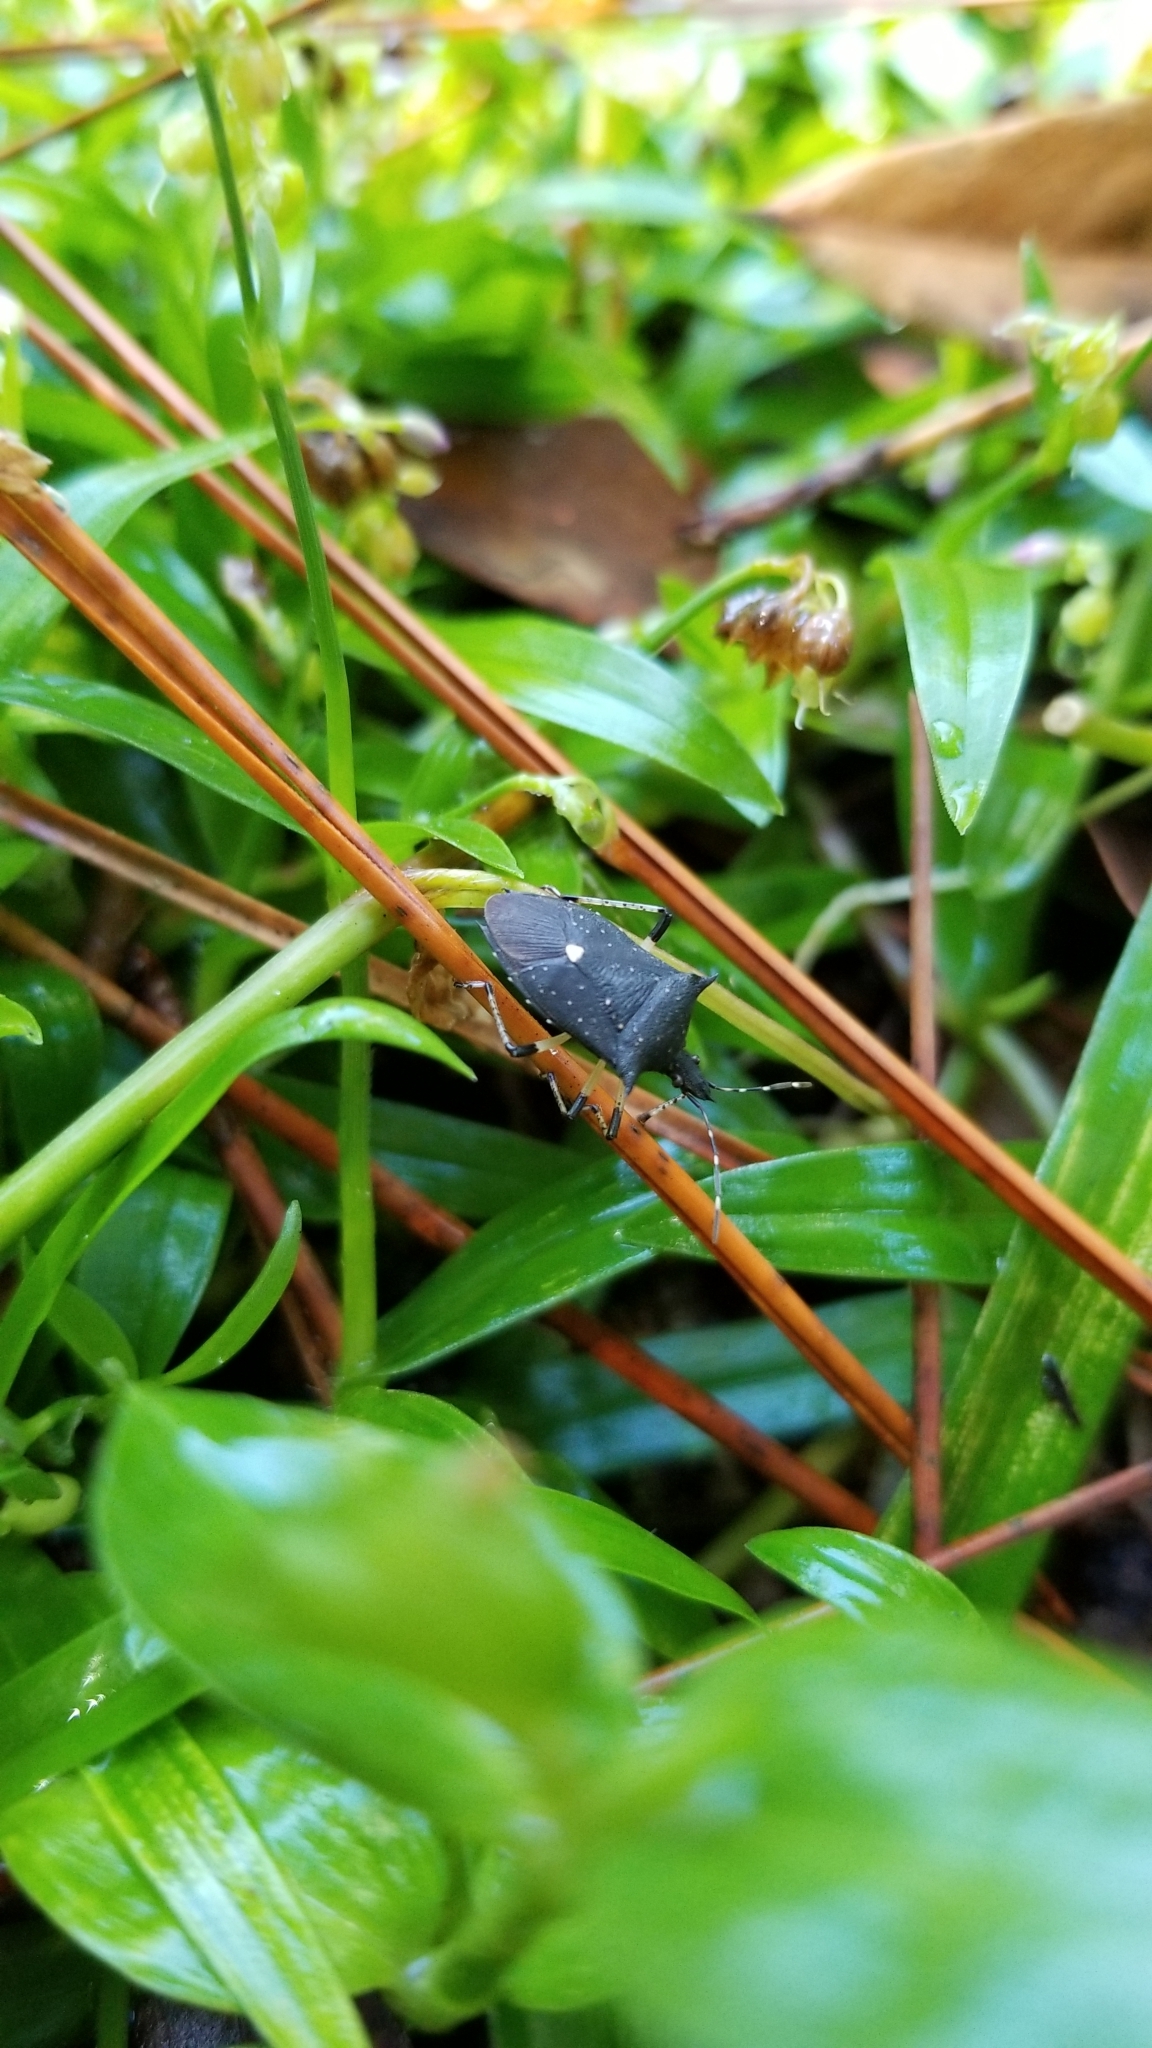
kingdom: Animalia
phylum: Arthropoda
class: Insecta
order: Hemiptera
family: Pentatomidae
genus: Proxys
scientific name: Proxys punctulatus
